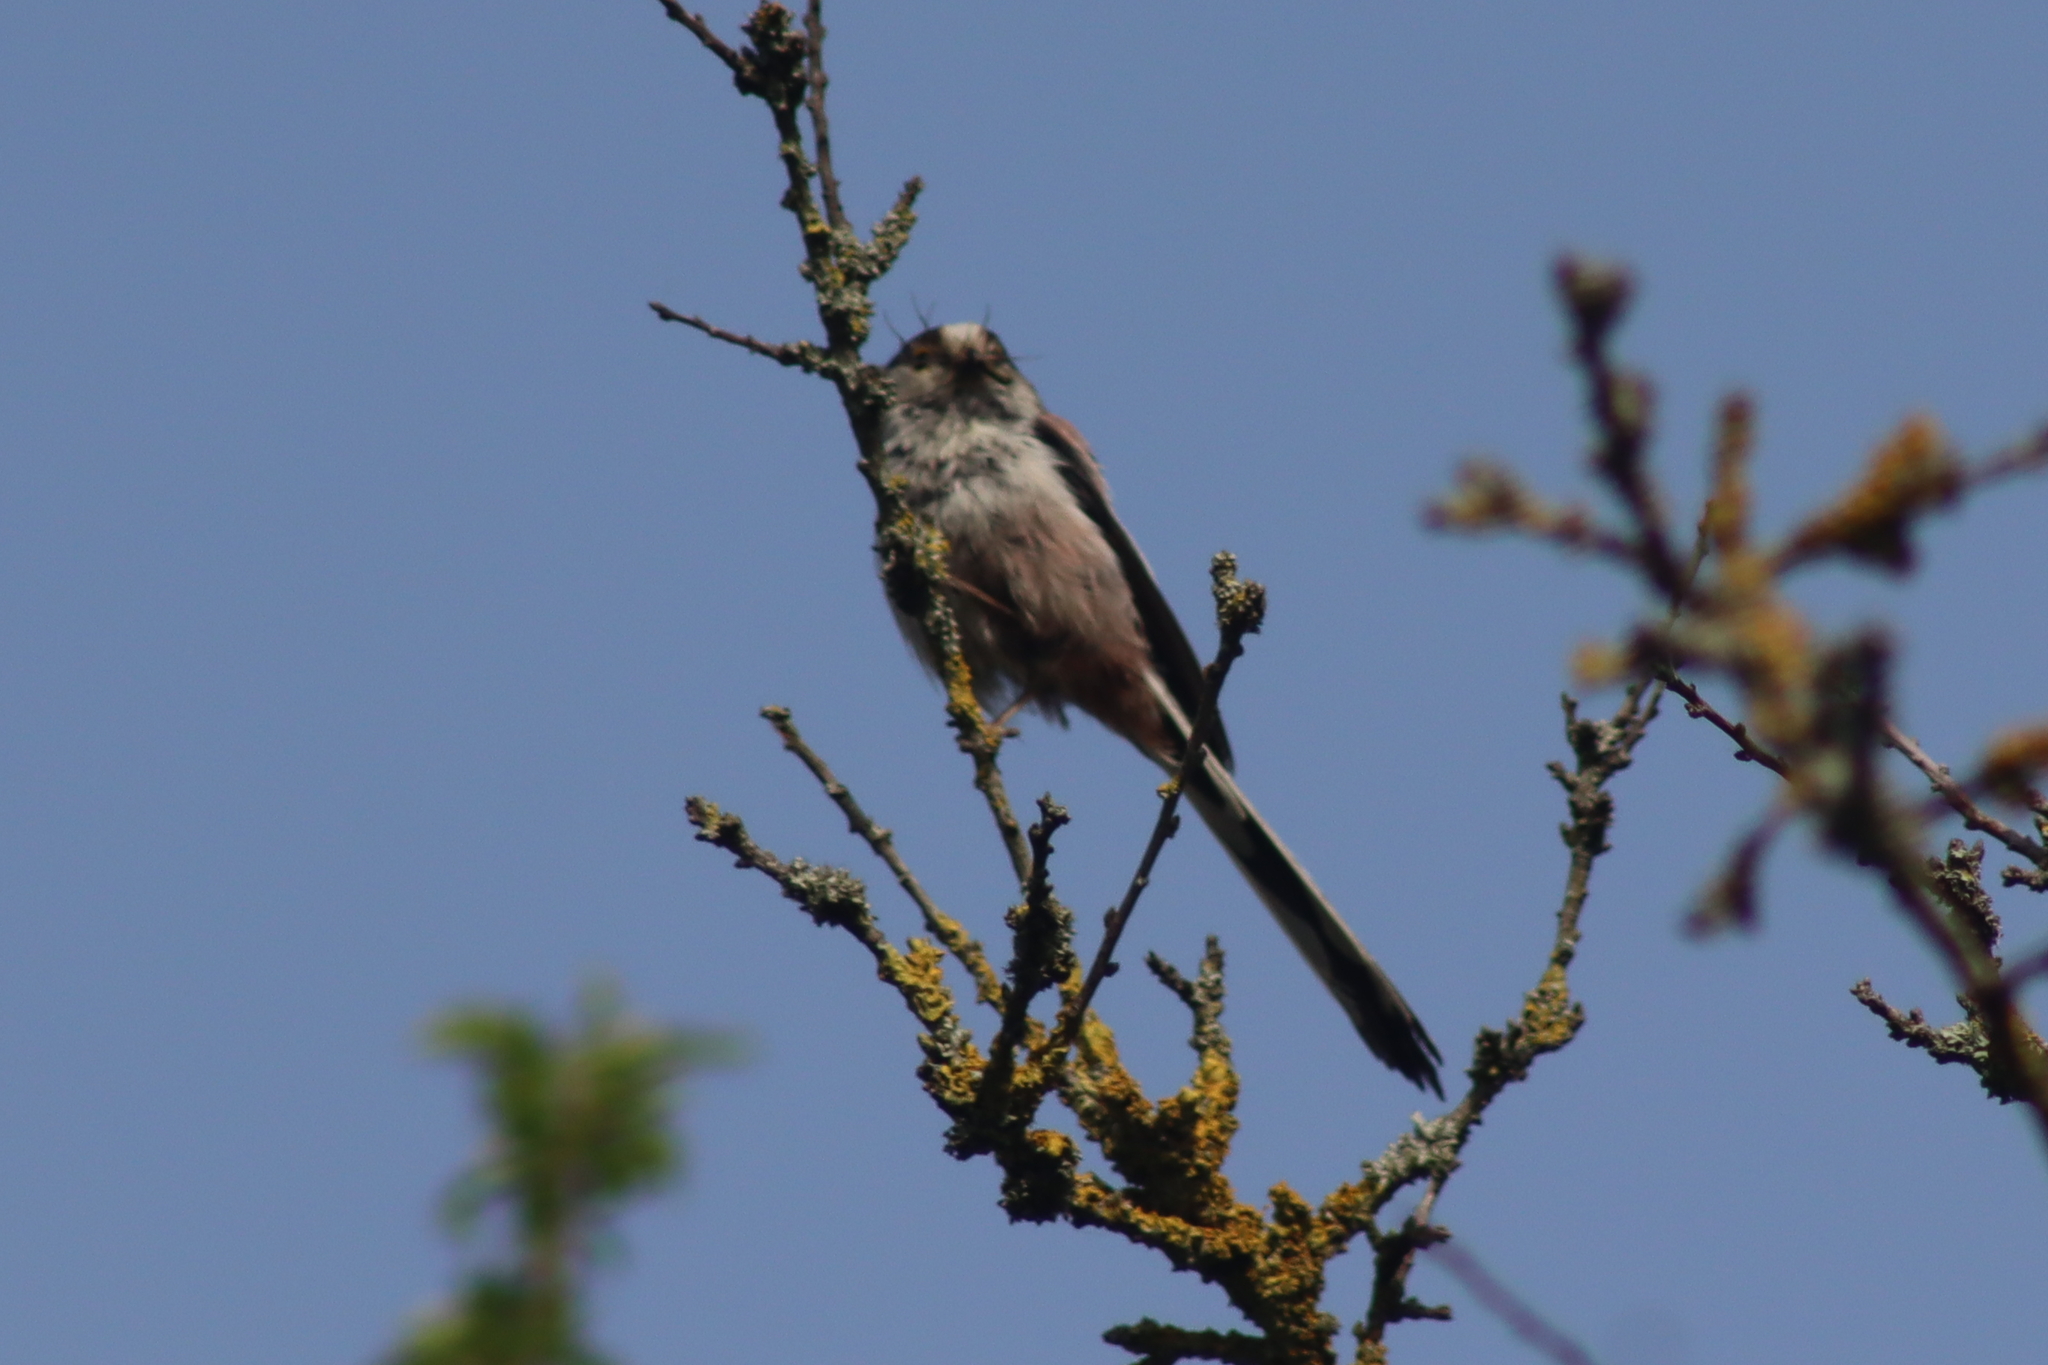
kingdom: Animalia
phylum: Chordata
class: Aves
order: Passeriformes
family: Aegithalidae
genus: Aegithalos
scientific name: Aegithalos caudatus
